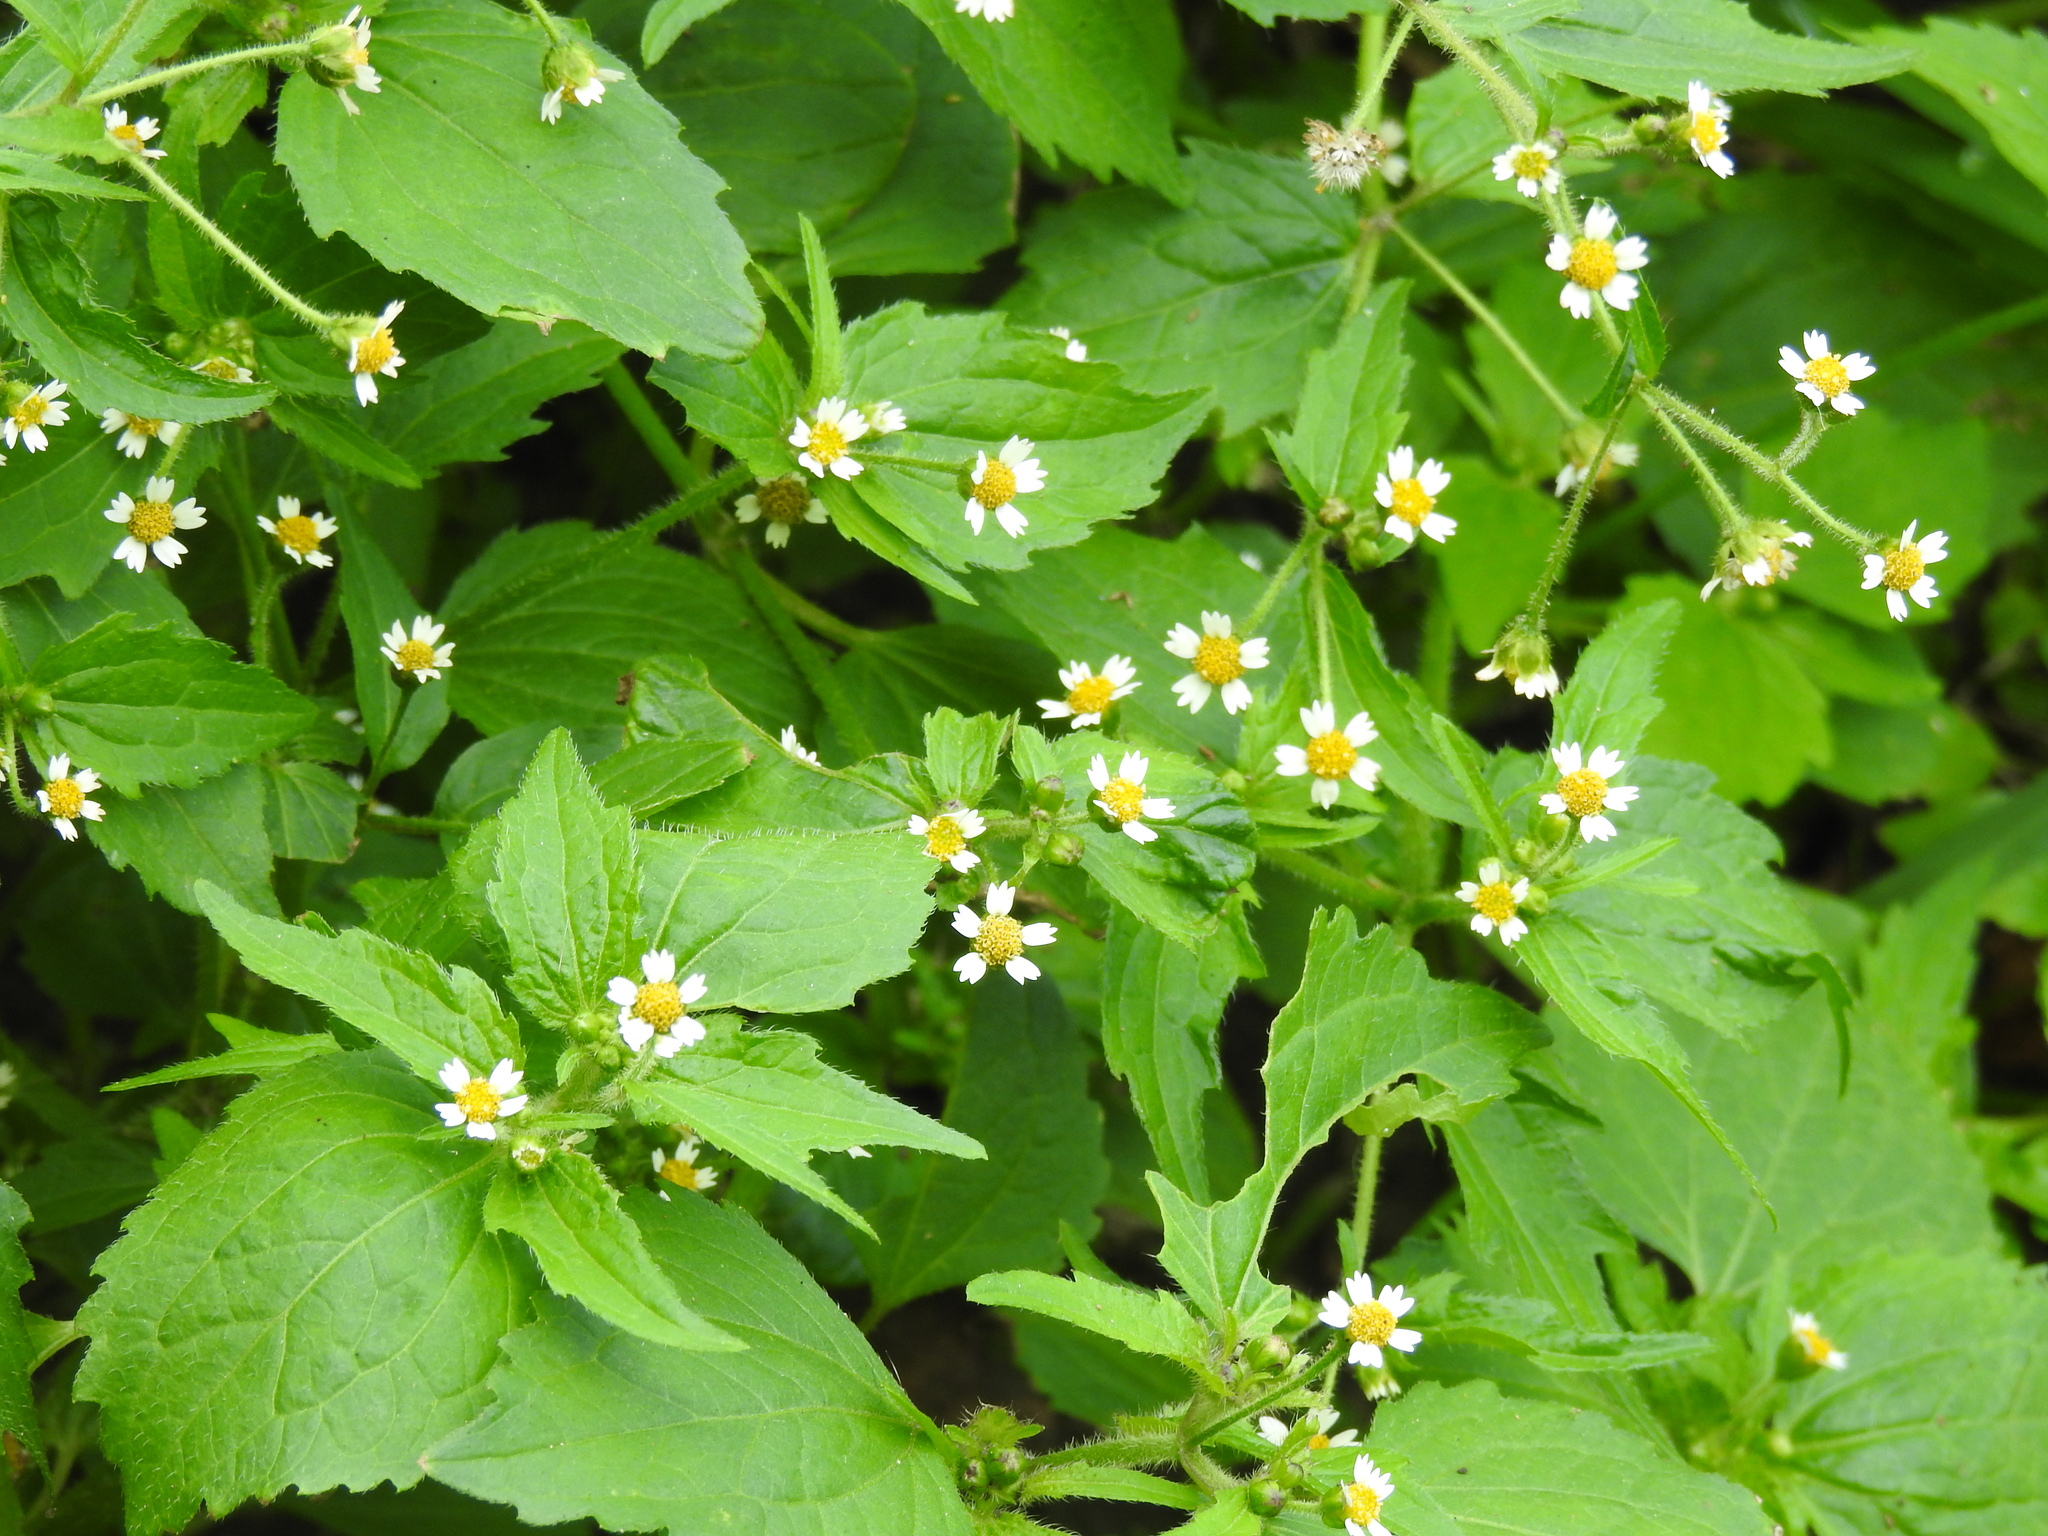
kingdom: Plantae
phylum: Tracheophyta
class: Magnoliopsida
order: Asterales
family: Asteraceae
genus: Galinsoga
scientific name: Galinsoga quadriradiata
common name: Shaggy soldier
